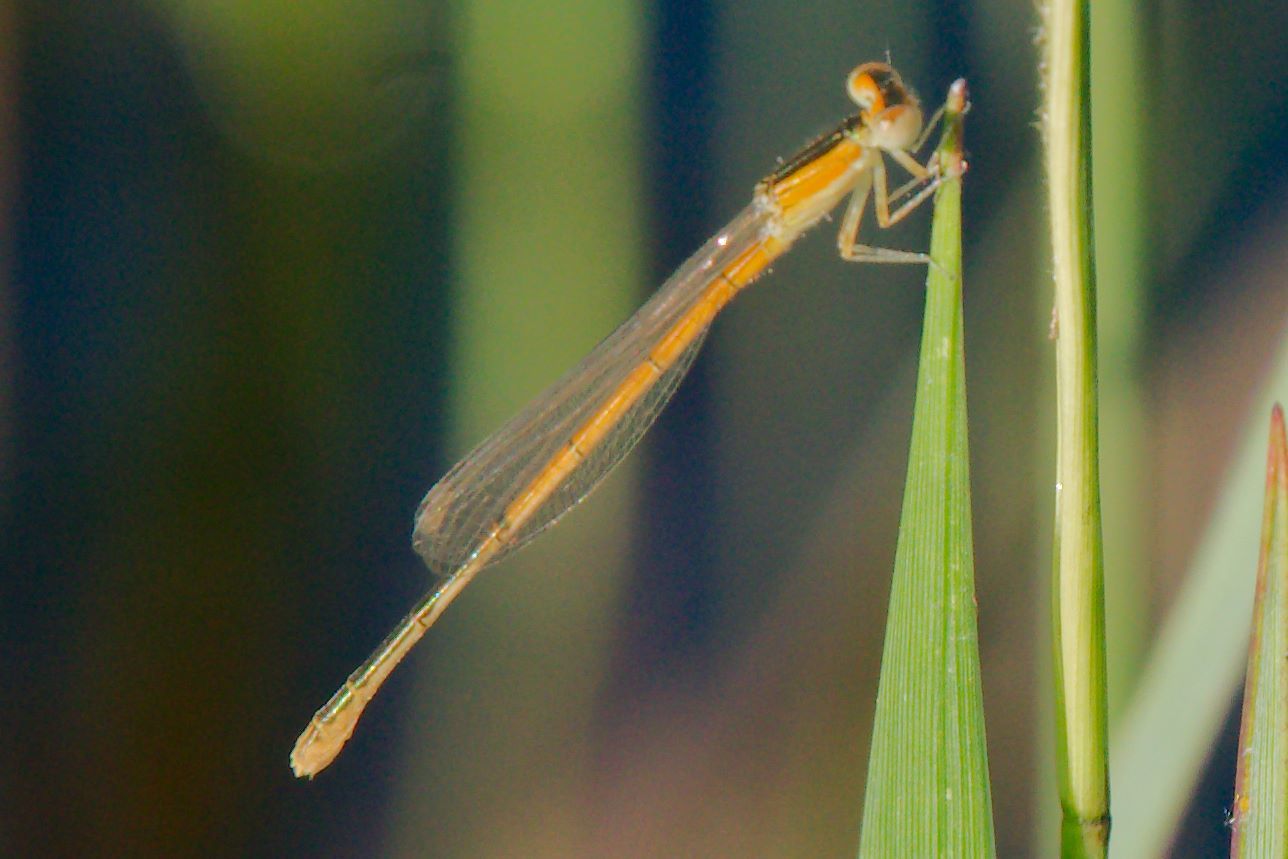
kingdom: Animalia
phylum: Arthropoda
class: Insecta
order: Odonata
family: Coenagrionidae
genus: Ischnura
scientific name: Ischnura hastata
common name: Citrine forktail
